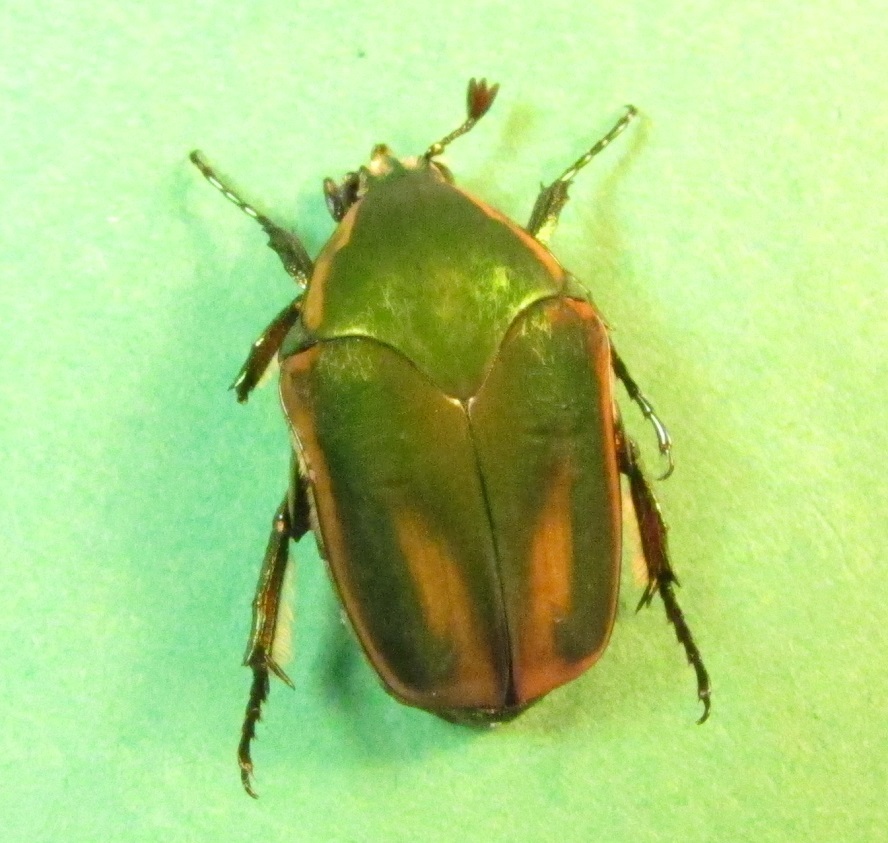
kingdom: Animalia
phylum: Arthropoda
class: Insecta
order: Coleoptera
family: Scarabaeidae
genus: Cotinis
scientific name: Cotinis nitida
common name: Common green june beetle
